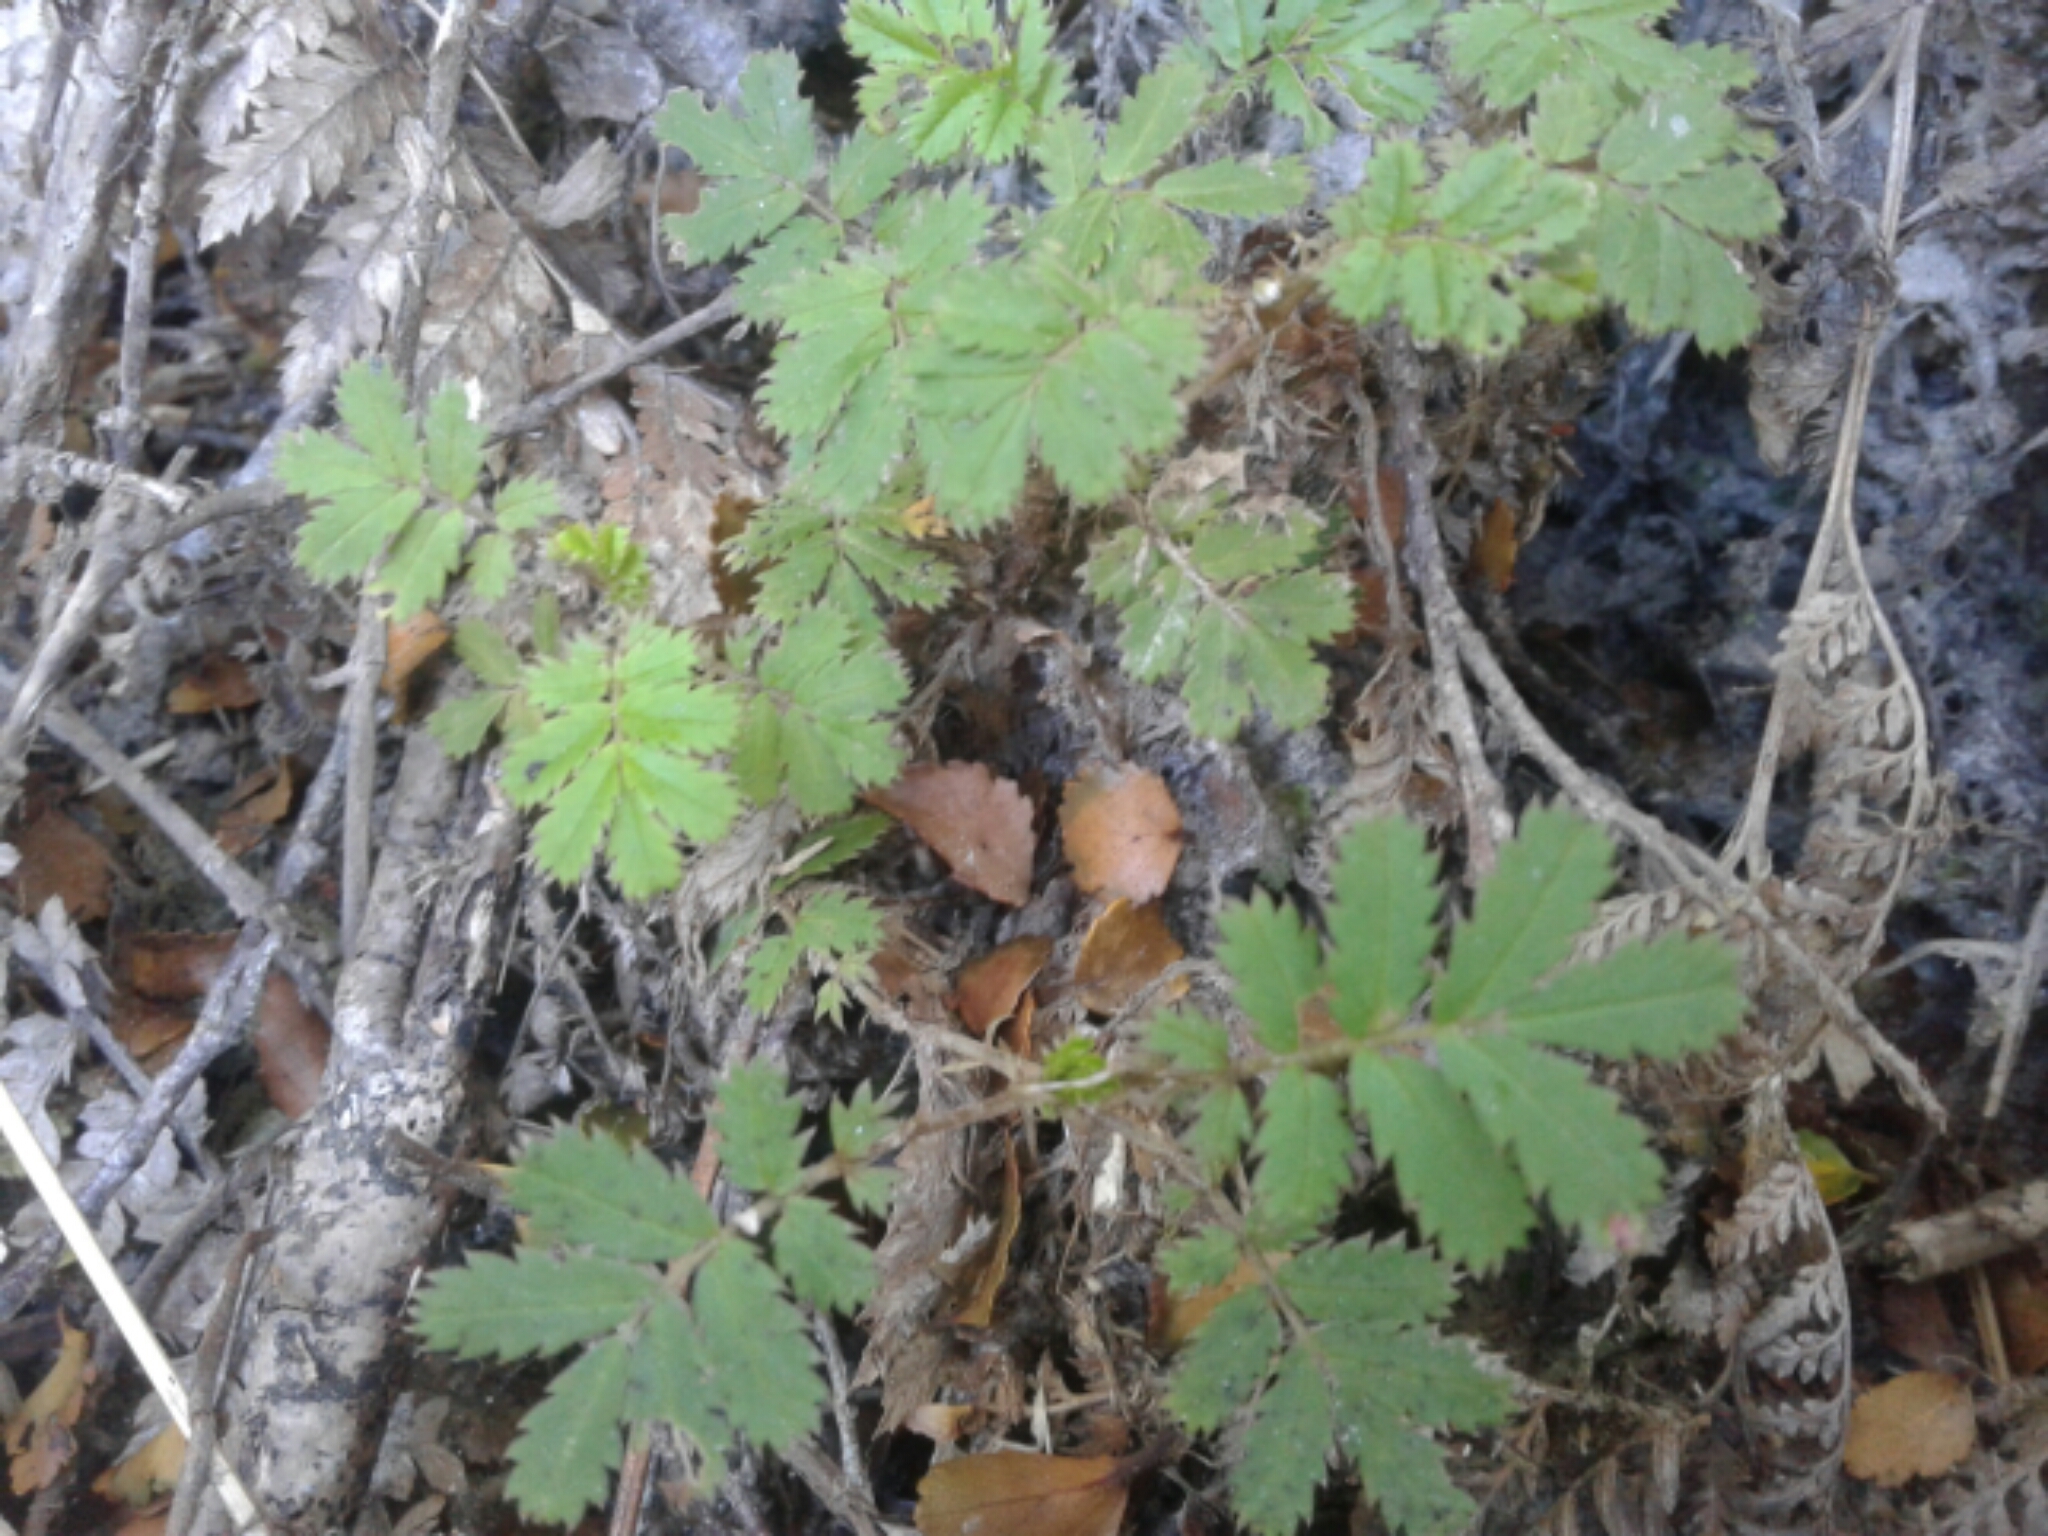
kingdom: Plantae
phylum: Tracheophyta
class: Magnoliopsida
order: Rosales
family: Rosaceae
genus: Acaena
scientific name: Acaena anserinifolia
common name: Bronze pirri-pirri-bur
